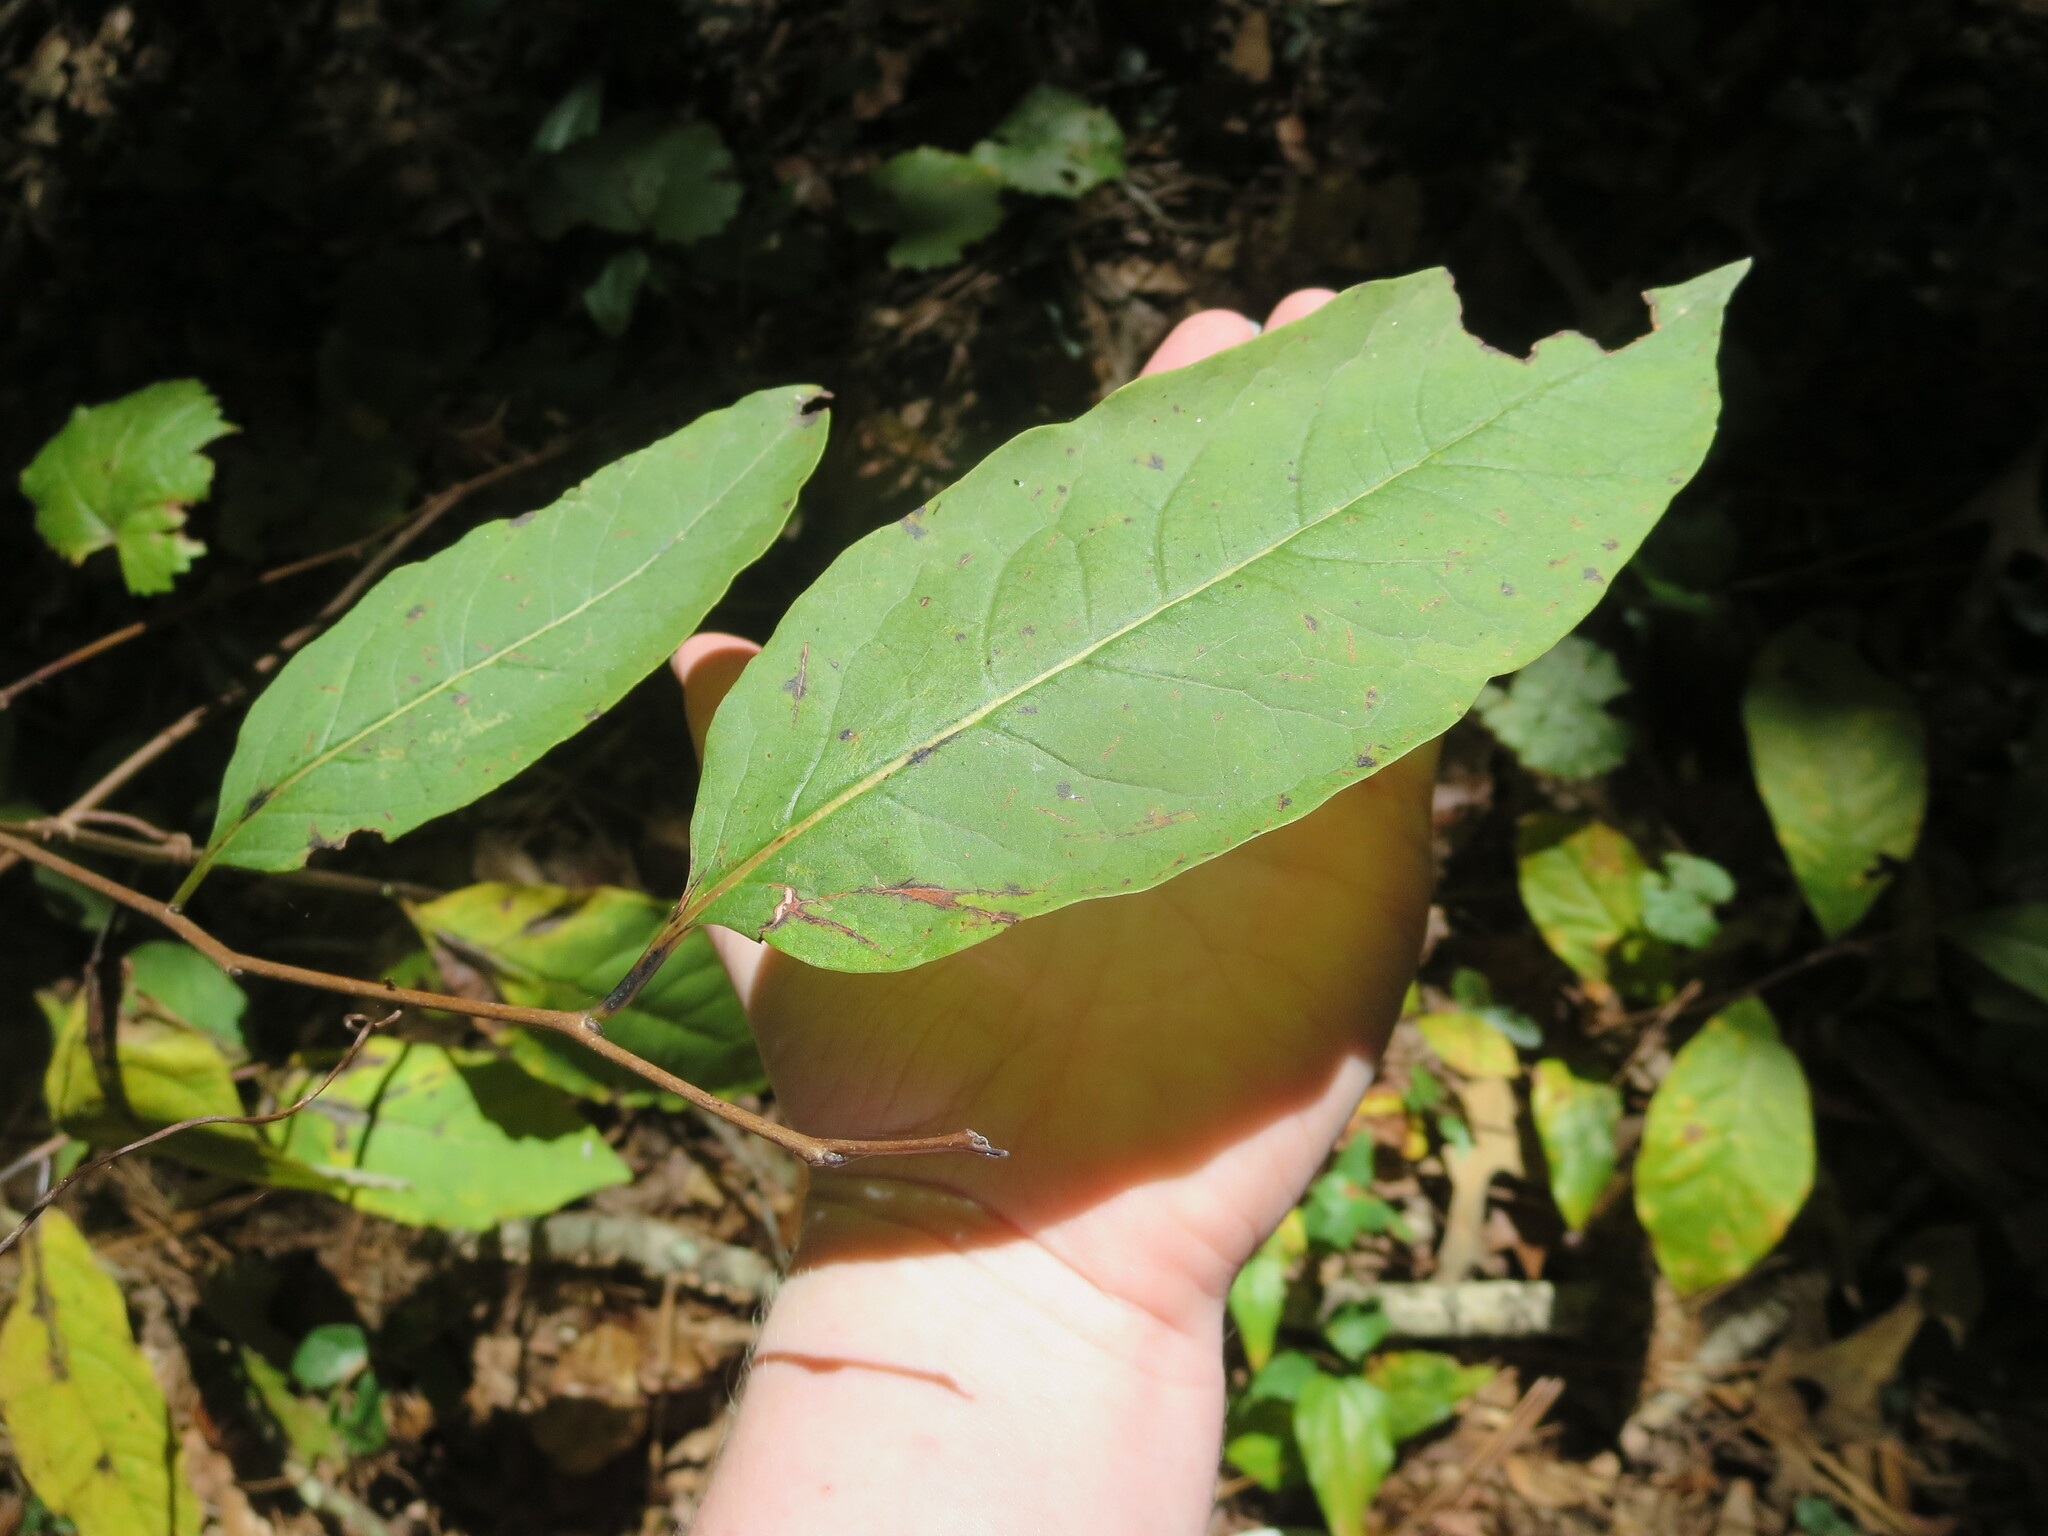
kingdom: Plantae
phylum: Tracheophyta
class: Magnoliopsida
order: Ericales
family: Ebenaceae
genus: Diospyros
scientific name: Diospyros virginiana
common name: Persimmon
